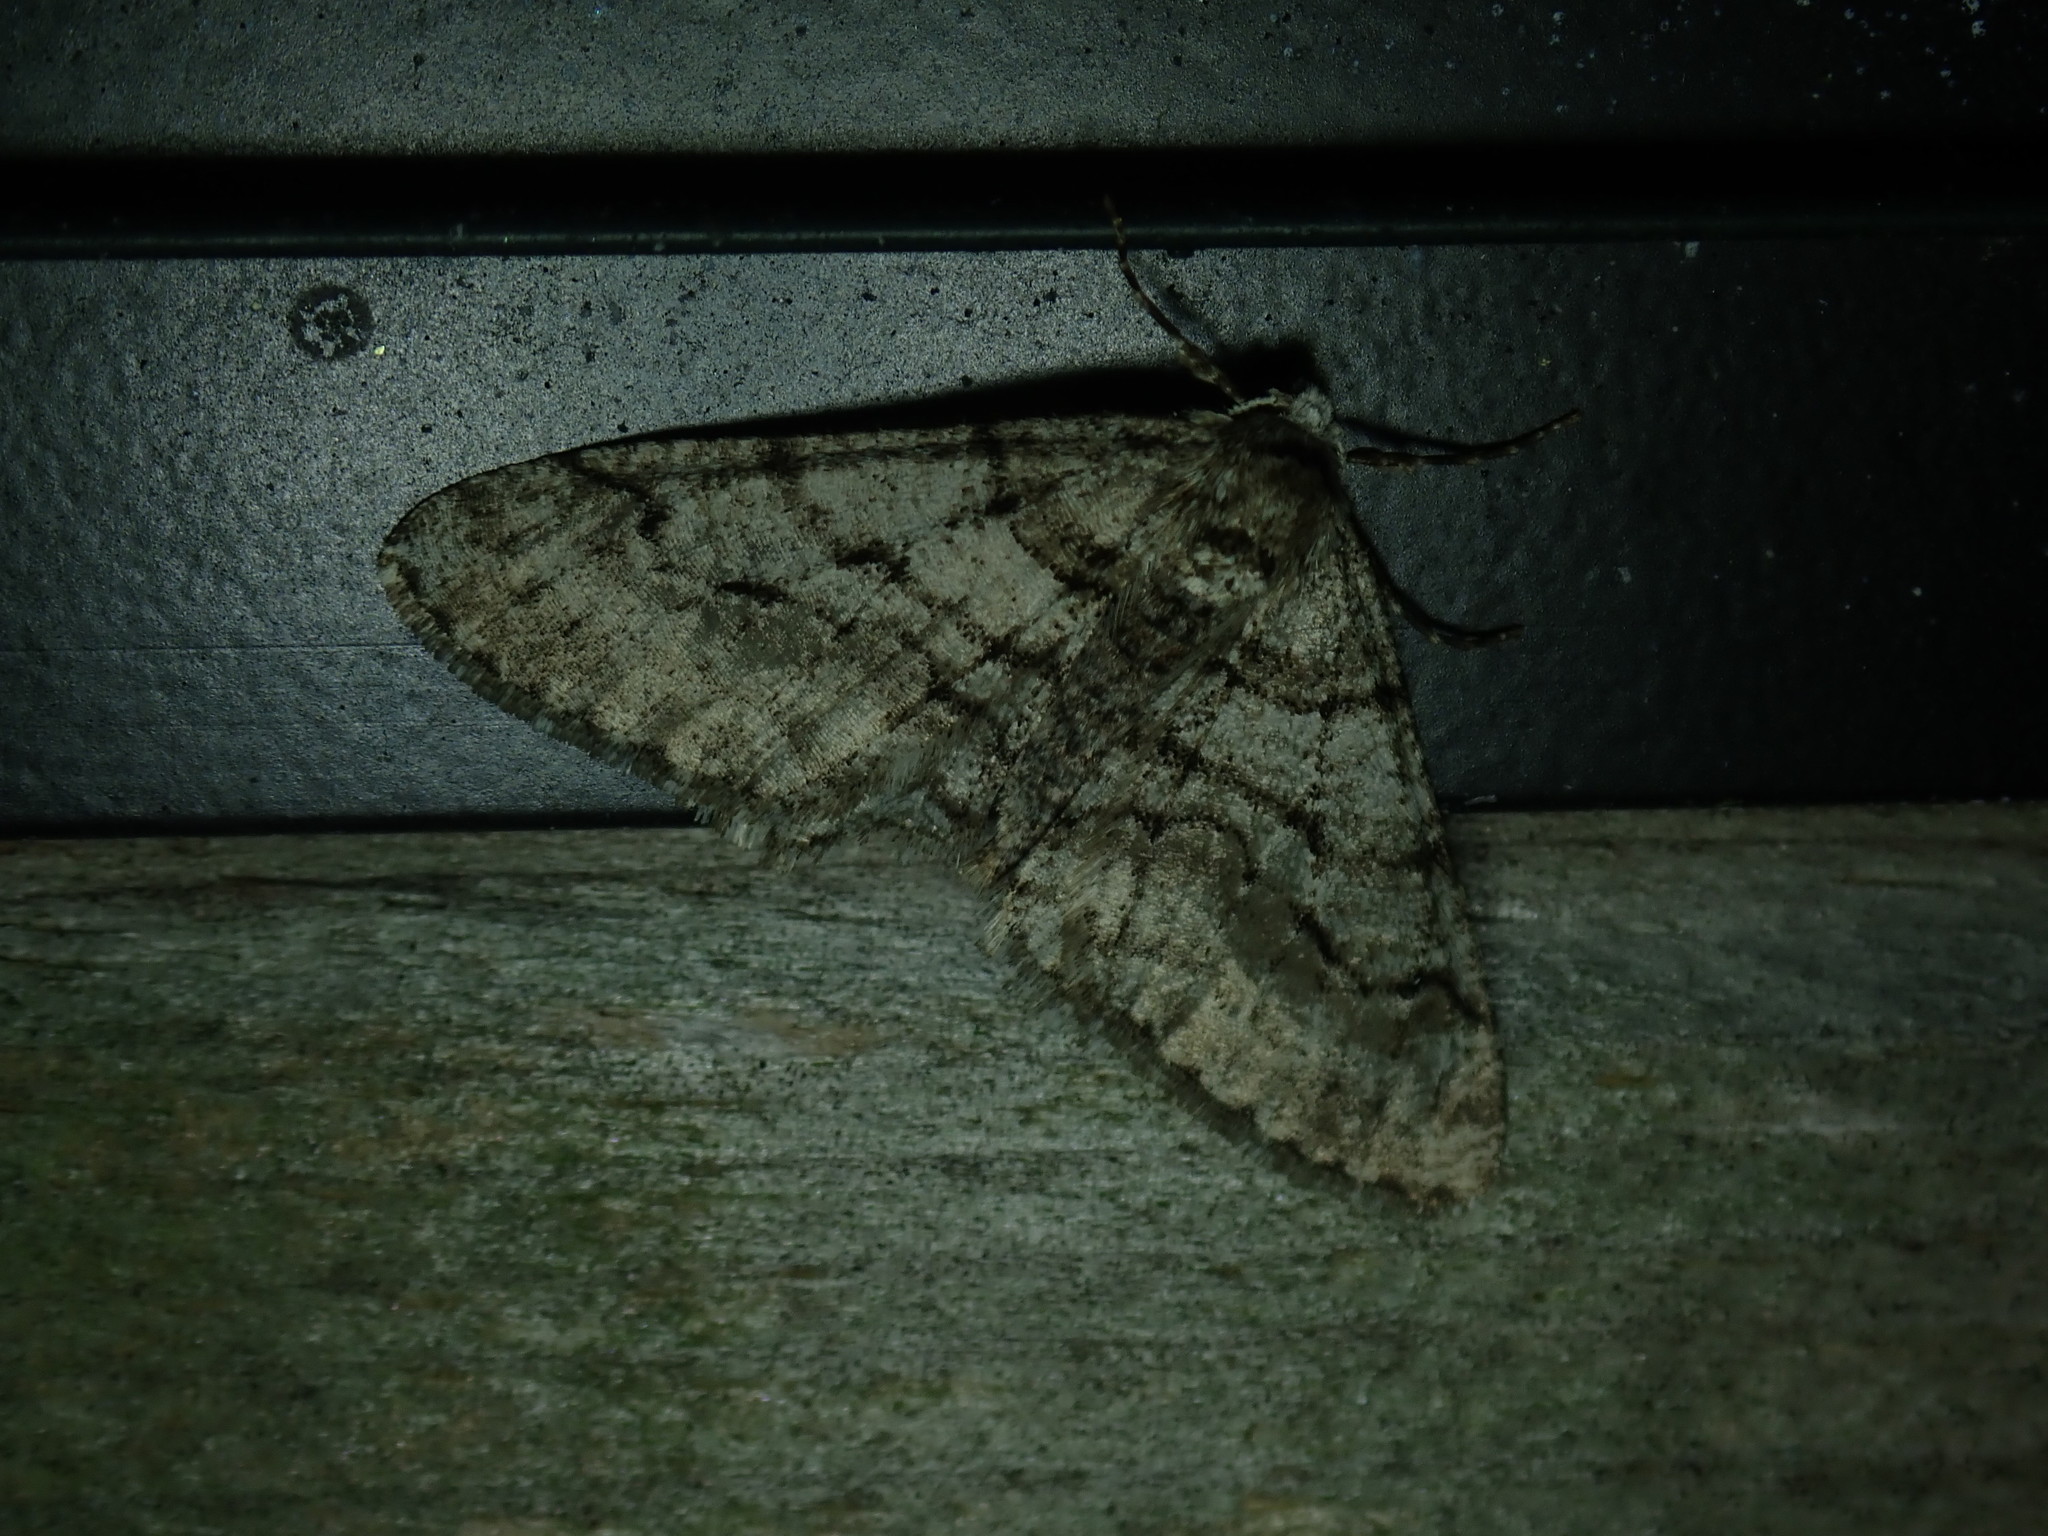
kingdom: Animalia
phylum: Arthropoda
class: Insecta
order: Lepidoptera
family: Geometridae
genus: Phigalia
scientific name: Phigalia titea
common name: Spiny looper
